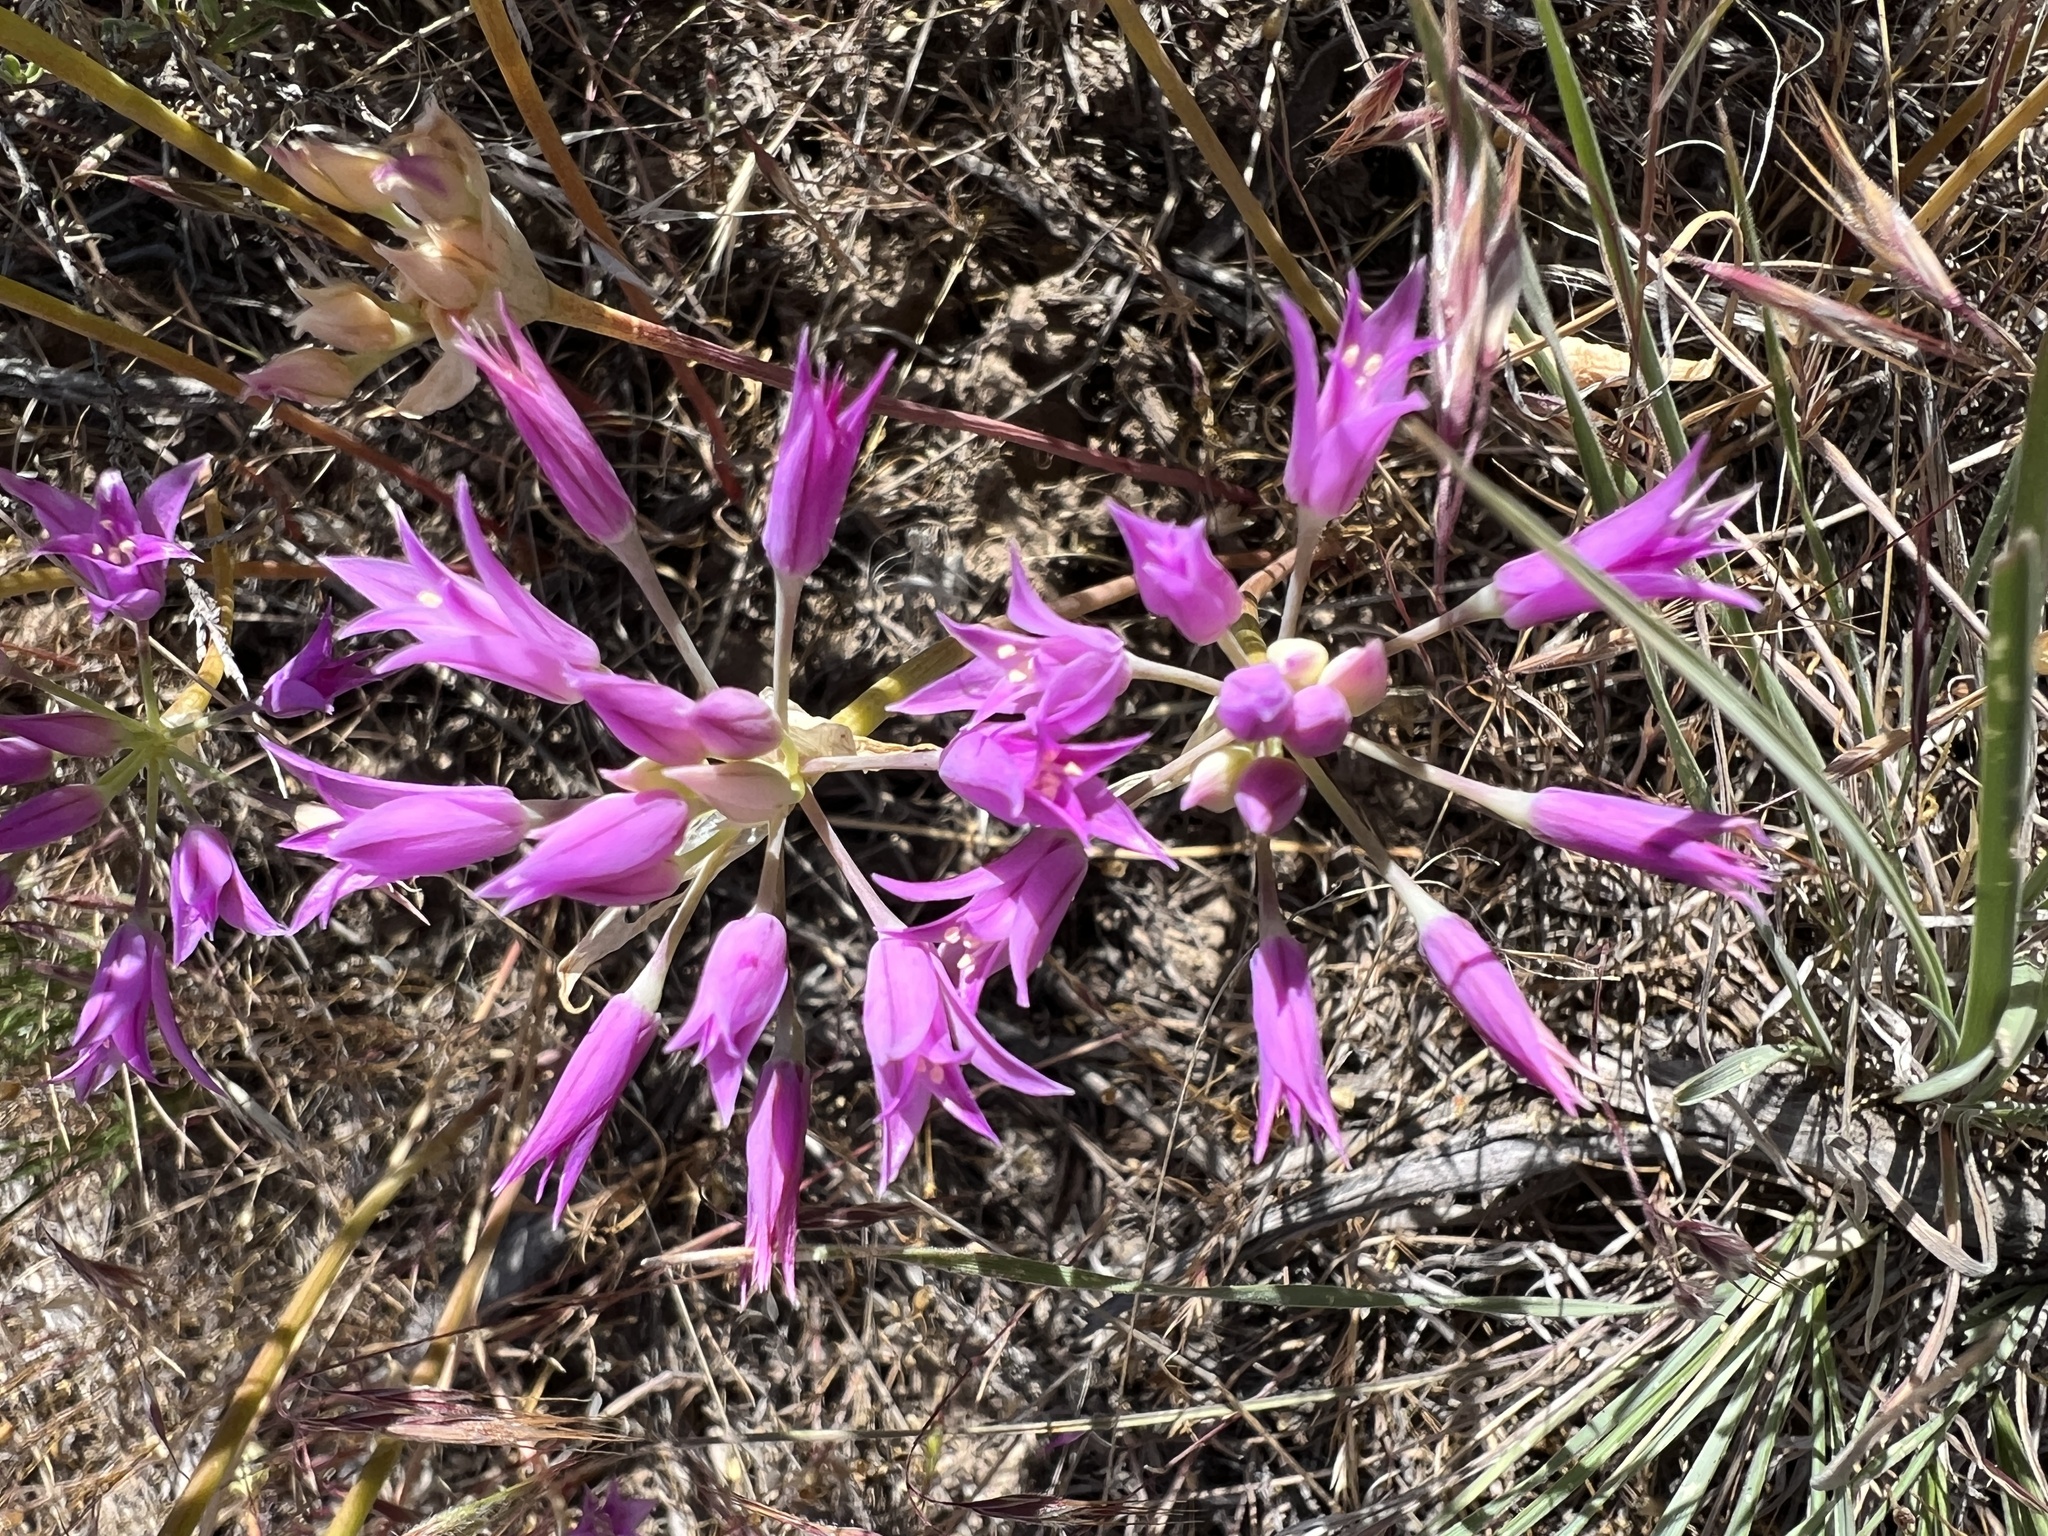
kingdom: Plantae
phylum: Tracheophyta
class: Liliopsida
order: Asparagales
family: Amaryllidaceae
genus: Allium
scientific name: Allium acuminatum
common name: Hooker's onion
